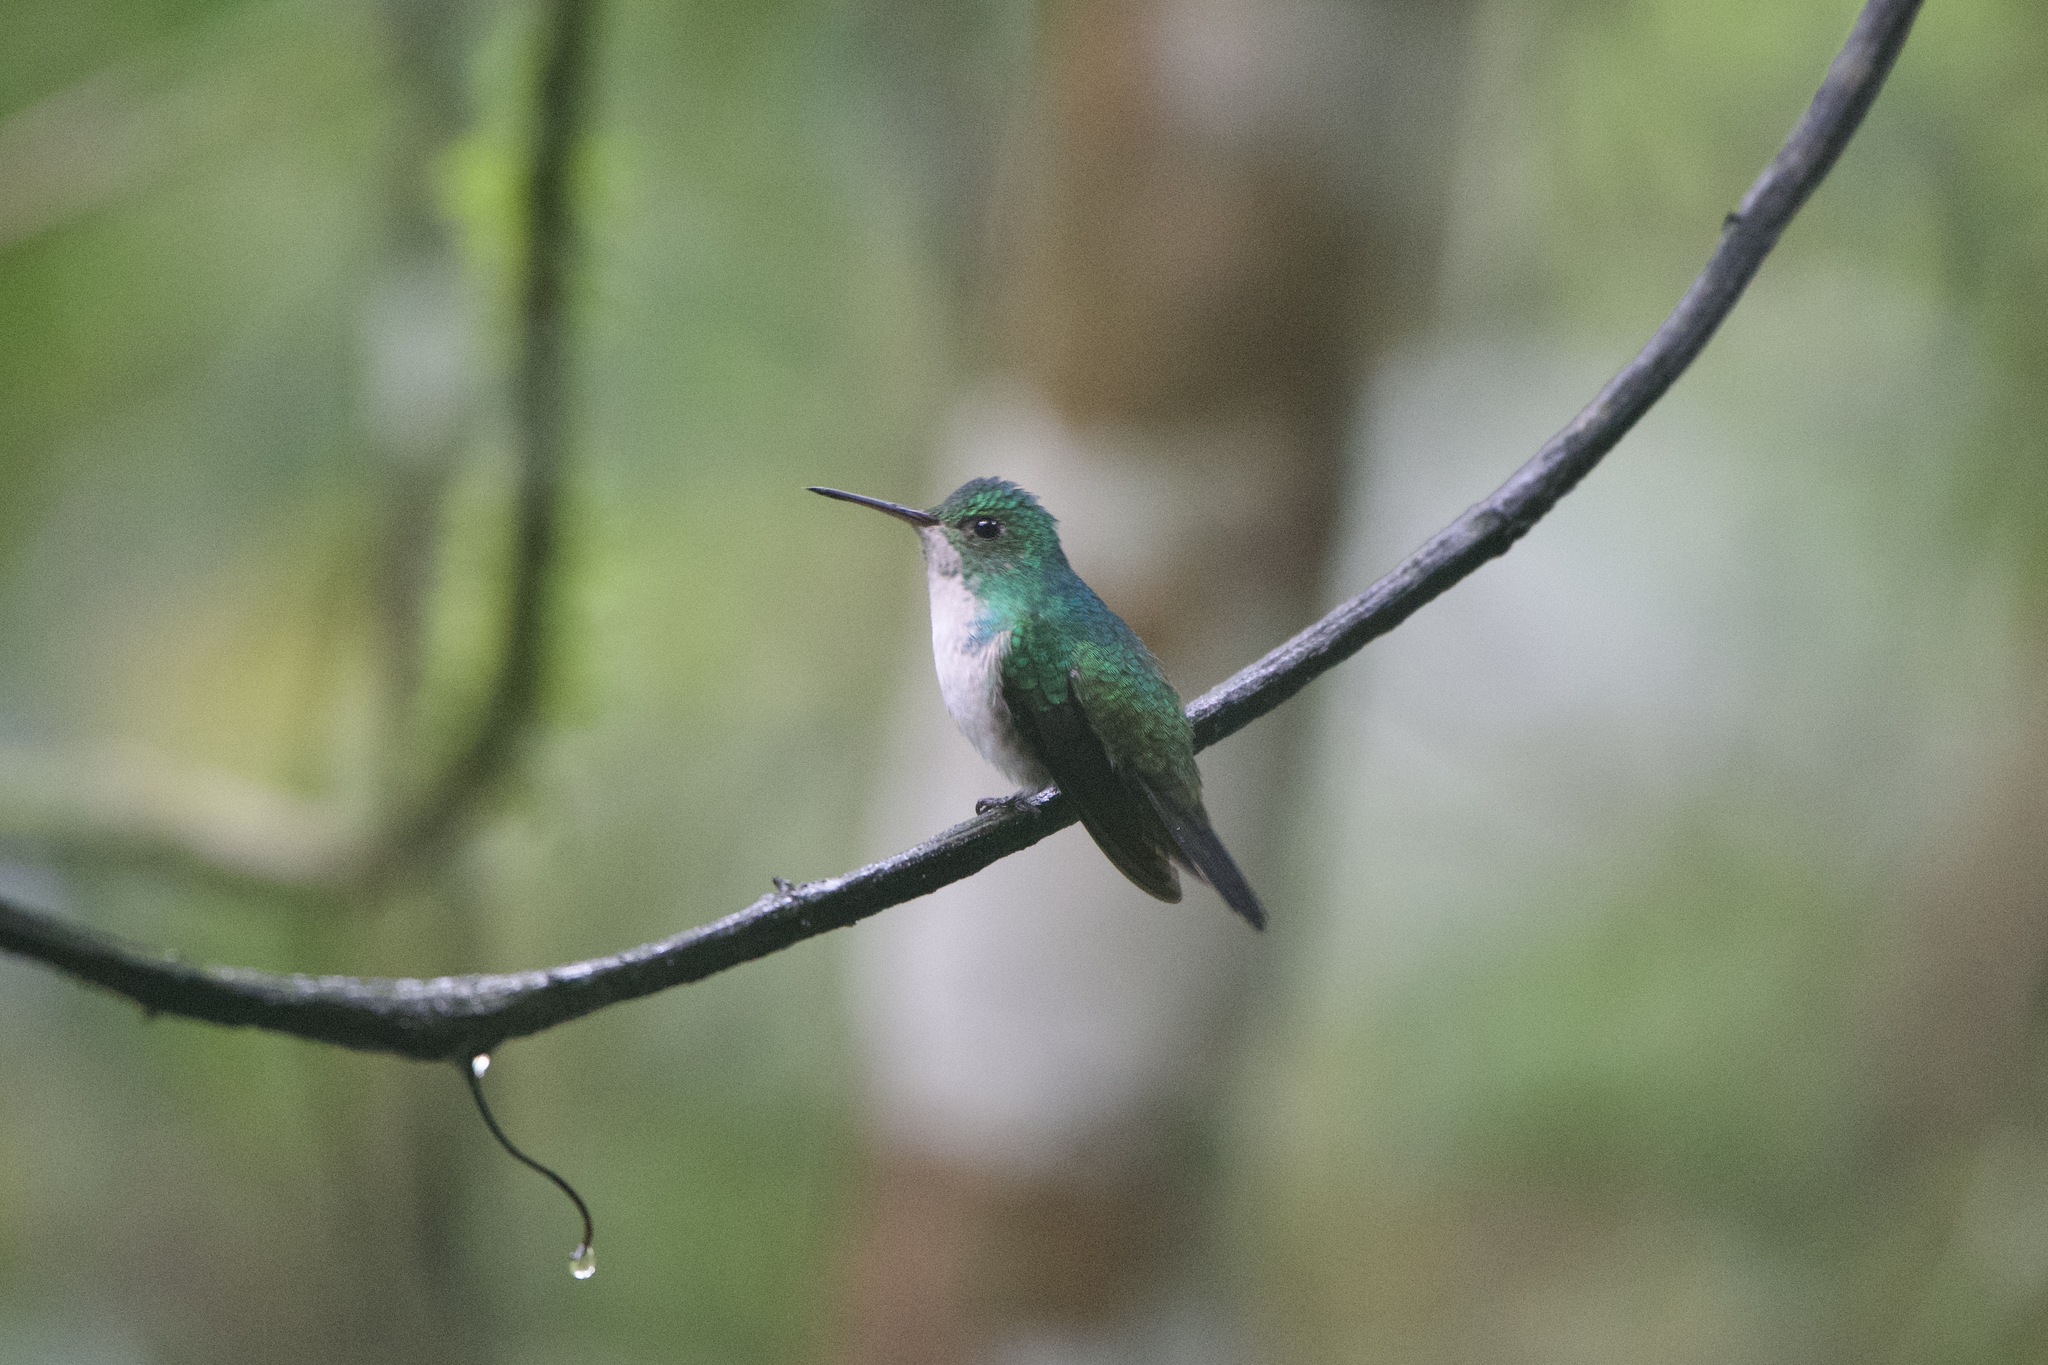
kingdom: Animalia
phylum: Chordata
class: Aves
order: Apodiformes
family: Trochilidae
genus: Chlorestes
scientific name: Chlorestes julie
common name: Violet-bellied hummingbird
